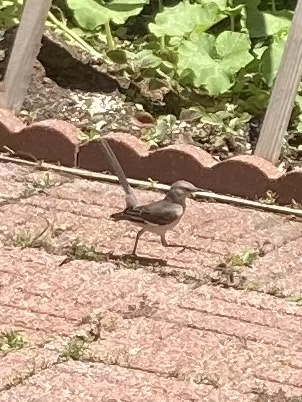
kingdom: Animalia
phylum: Chordata
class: Aves
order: Passeriformes
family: Mimidae
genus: Mimus
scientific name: Mimus polyglottos
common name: Northern mockingbird
